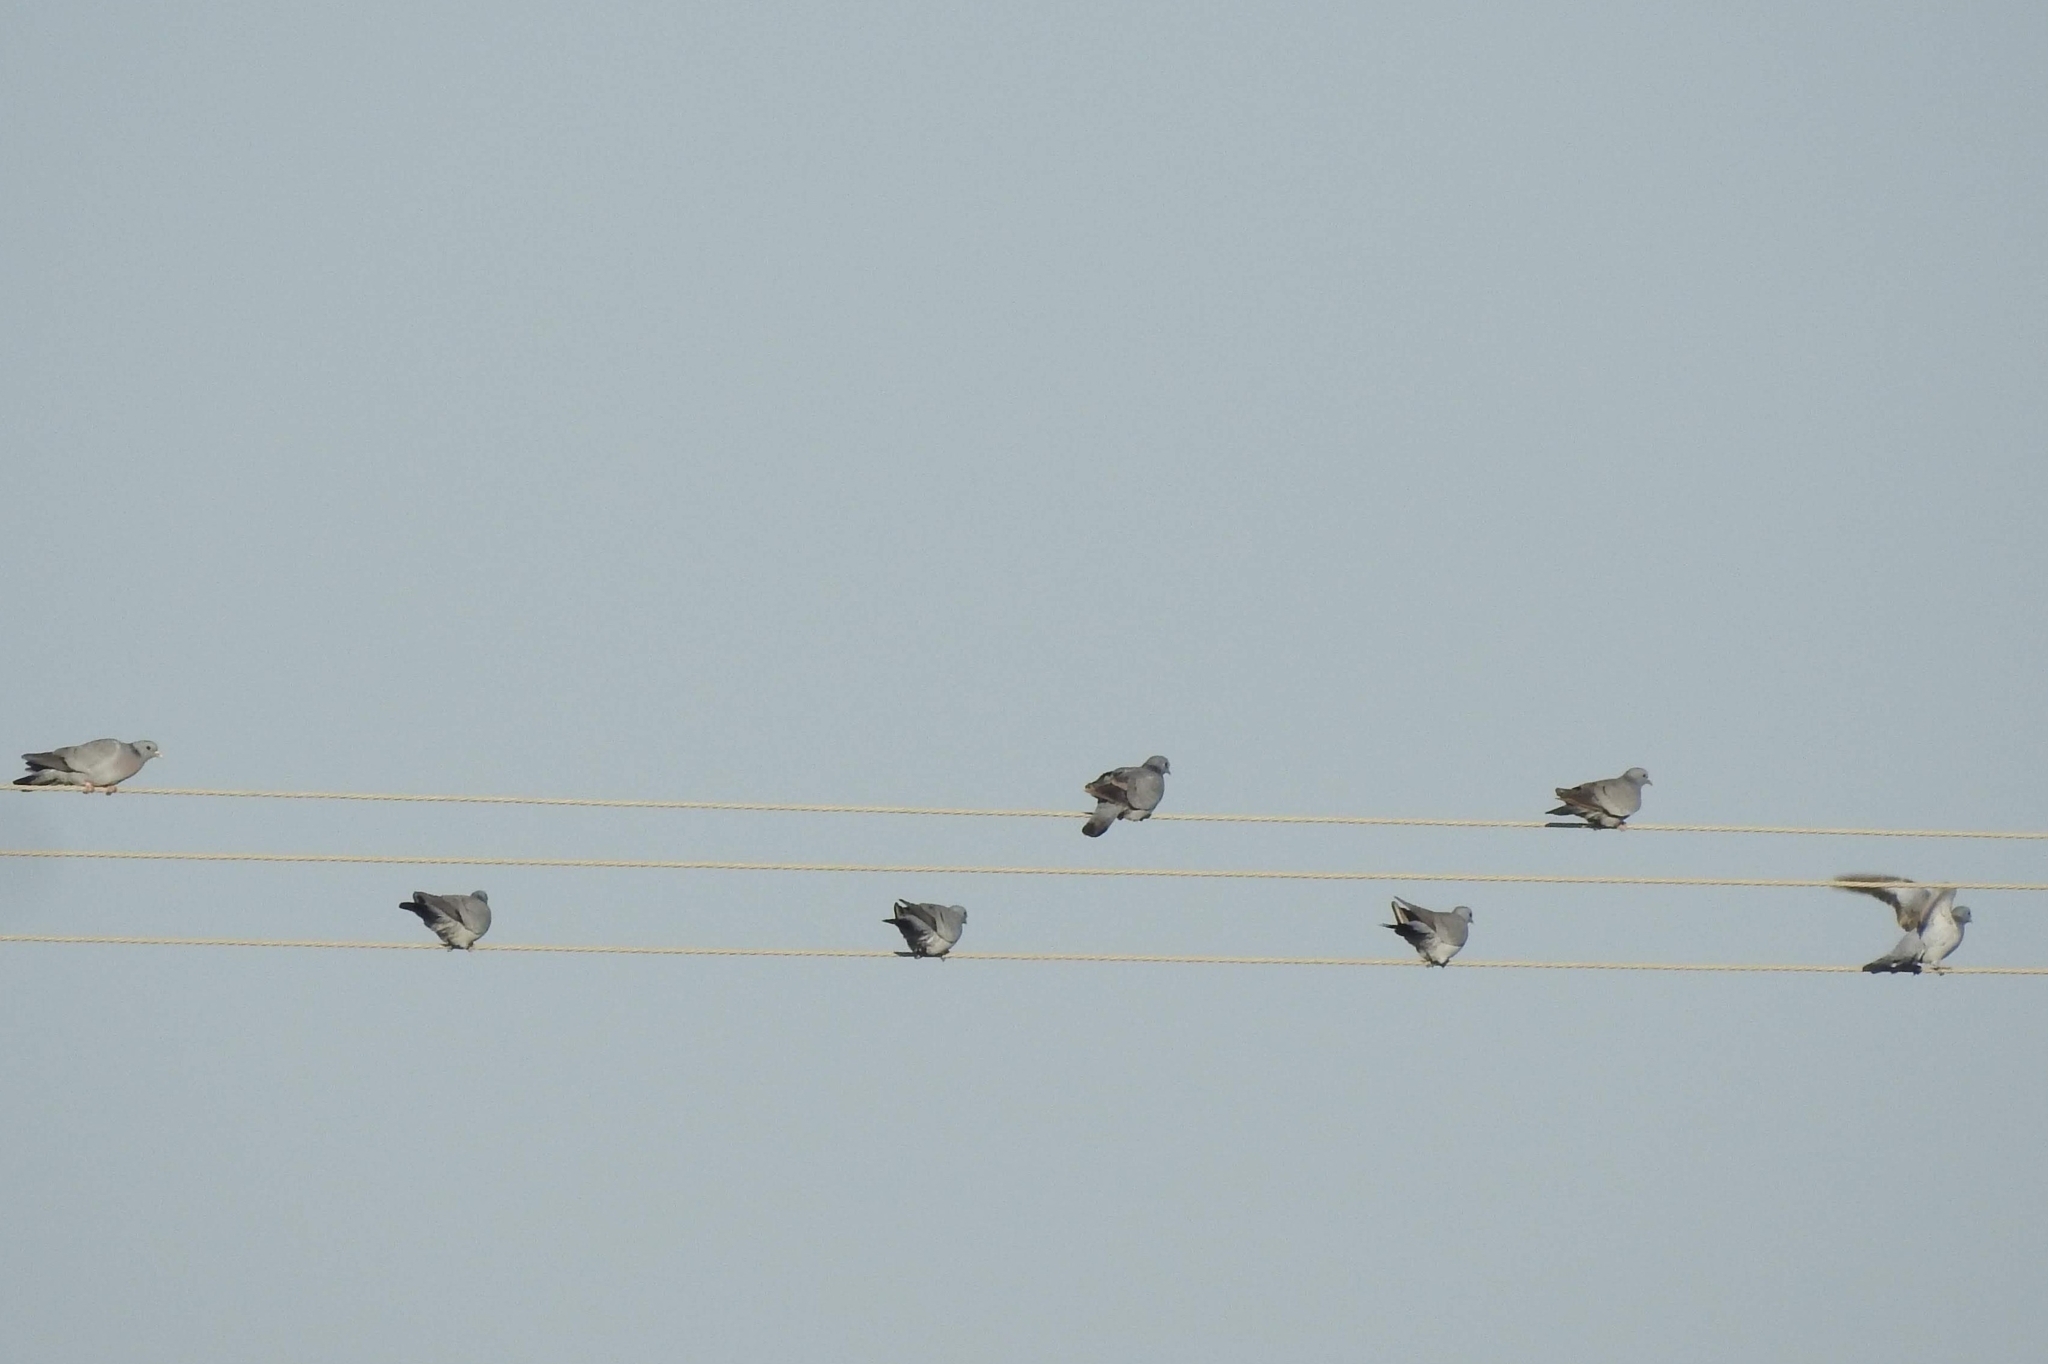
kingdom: Animalia
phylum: Chordata
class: Aves
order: Columbiformes
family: Columbidae
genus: Columba
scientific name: Columba oenas
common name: Stock dove
